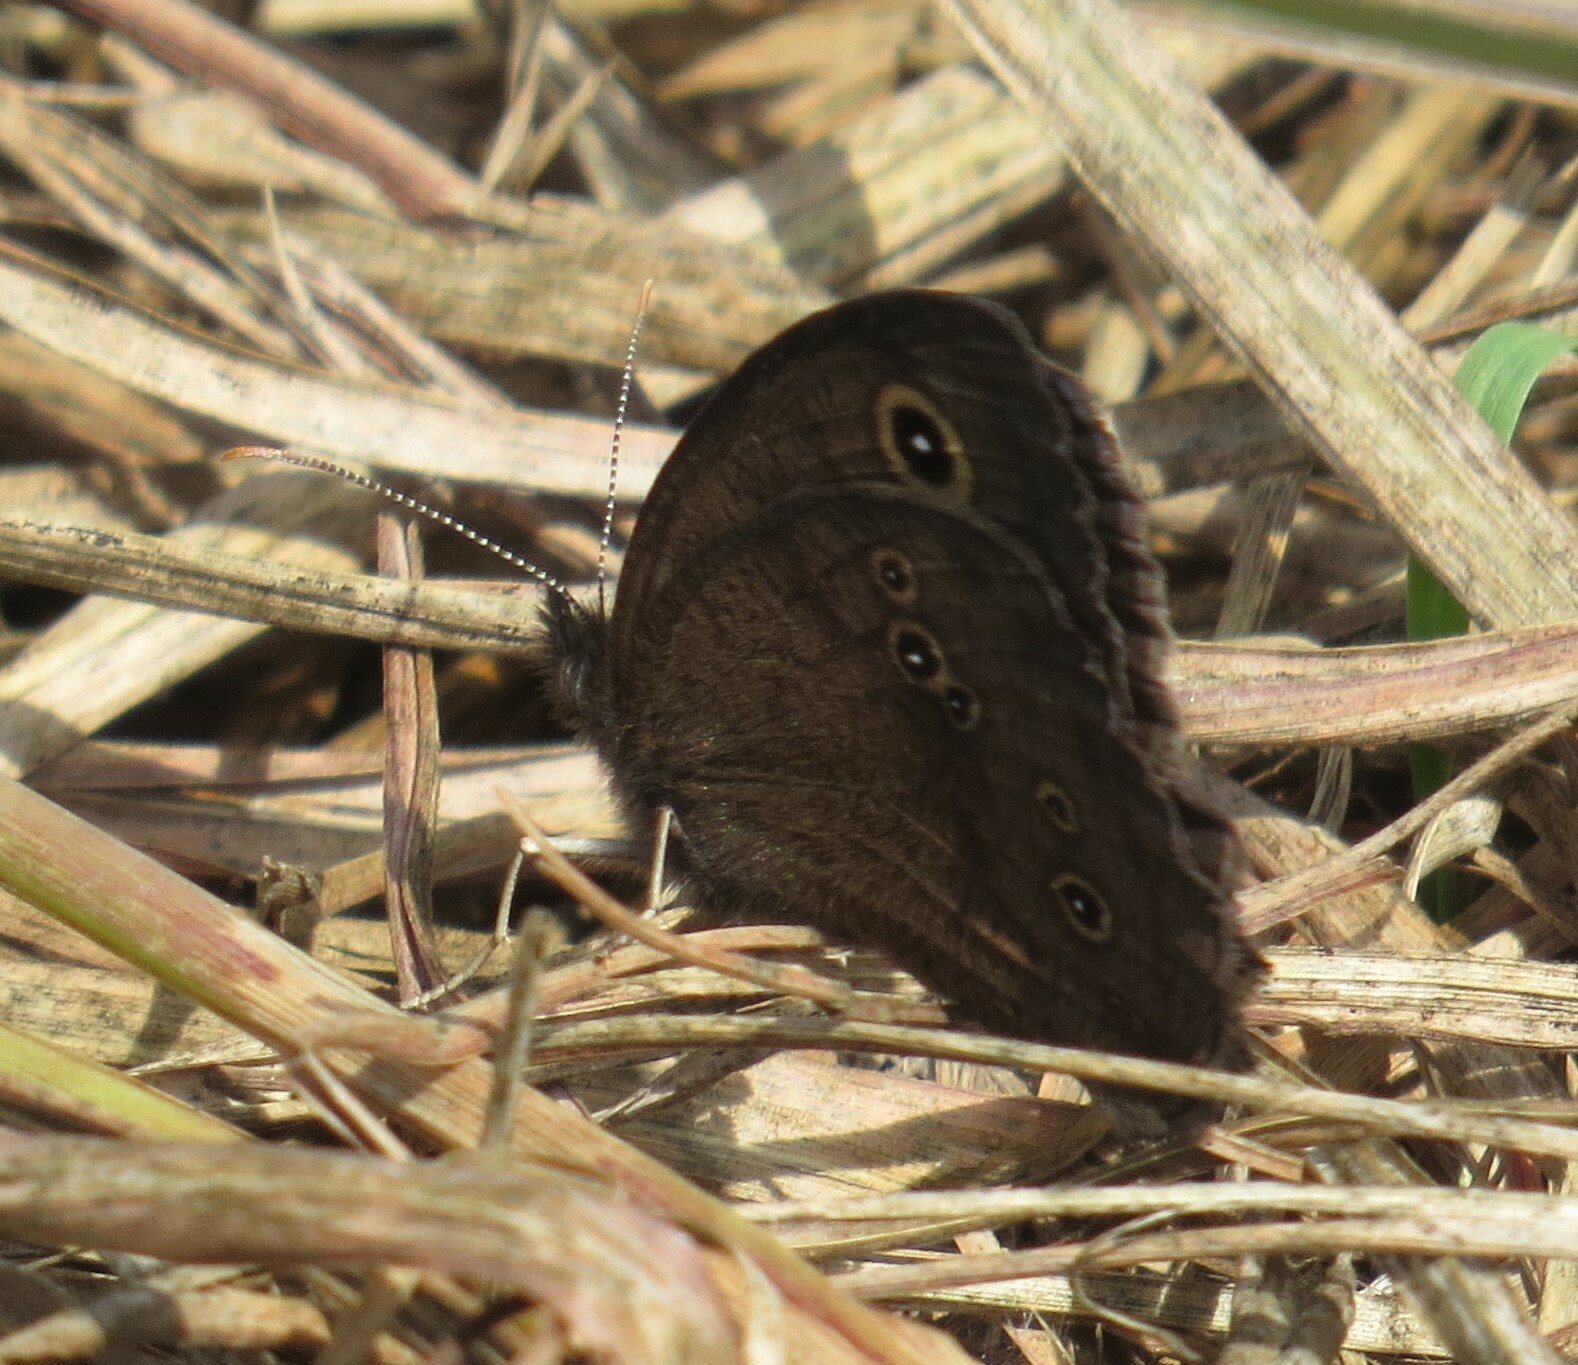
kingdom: Animalia
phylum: Arthropoda
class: Insecta
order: Lepidoptera
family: Nymphalidae
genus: Cercyonis
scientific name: Cercyonis pegala
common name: Common wood-nymph
